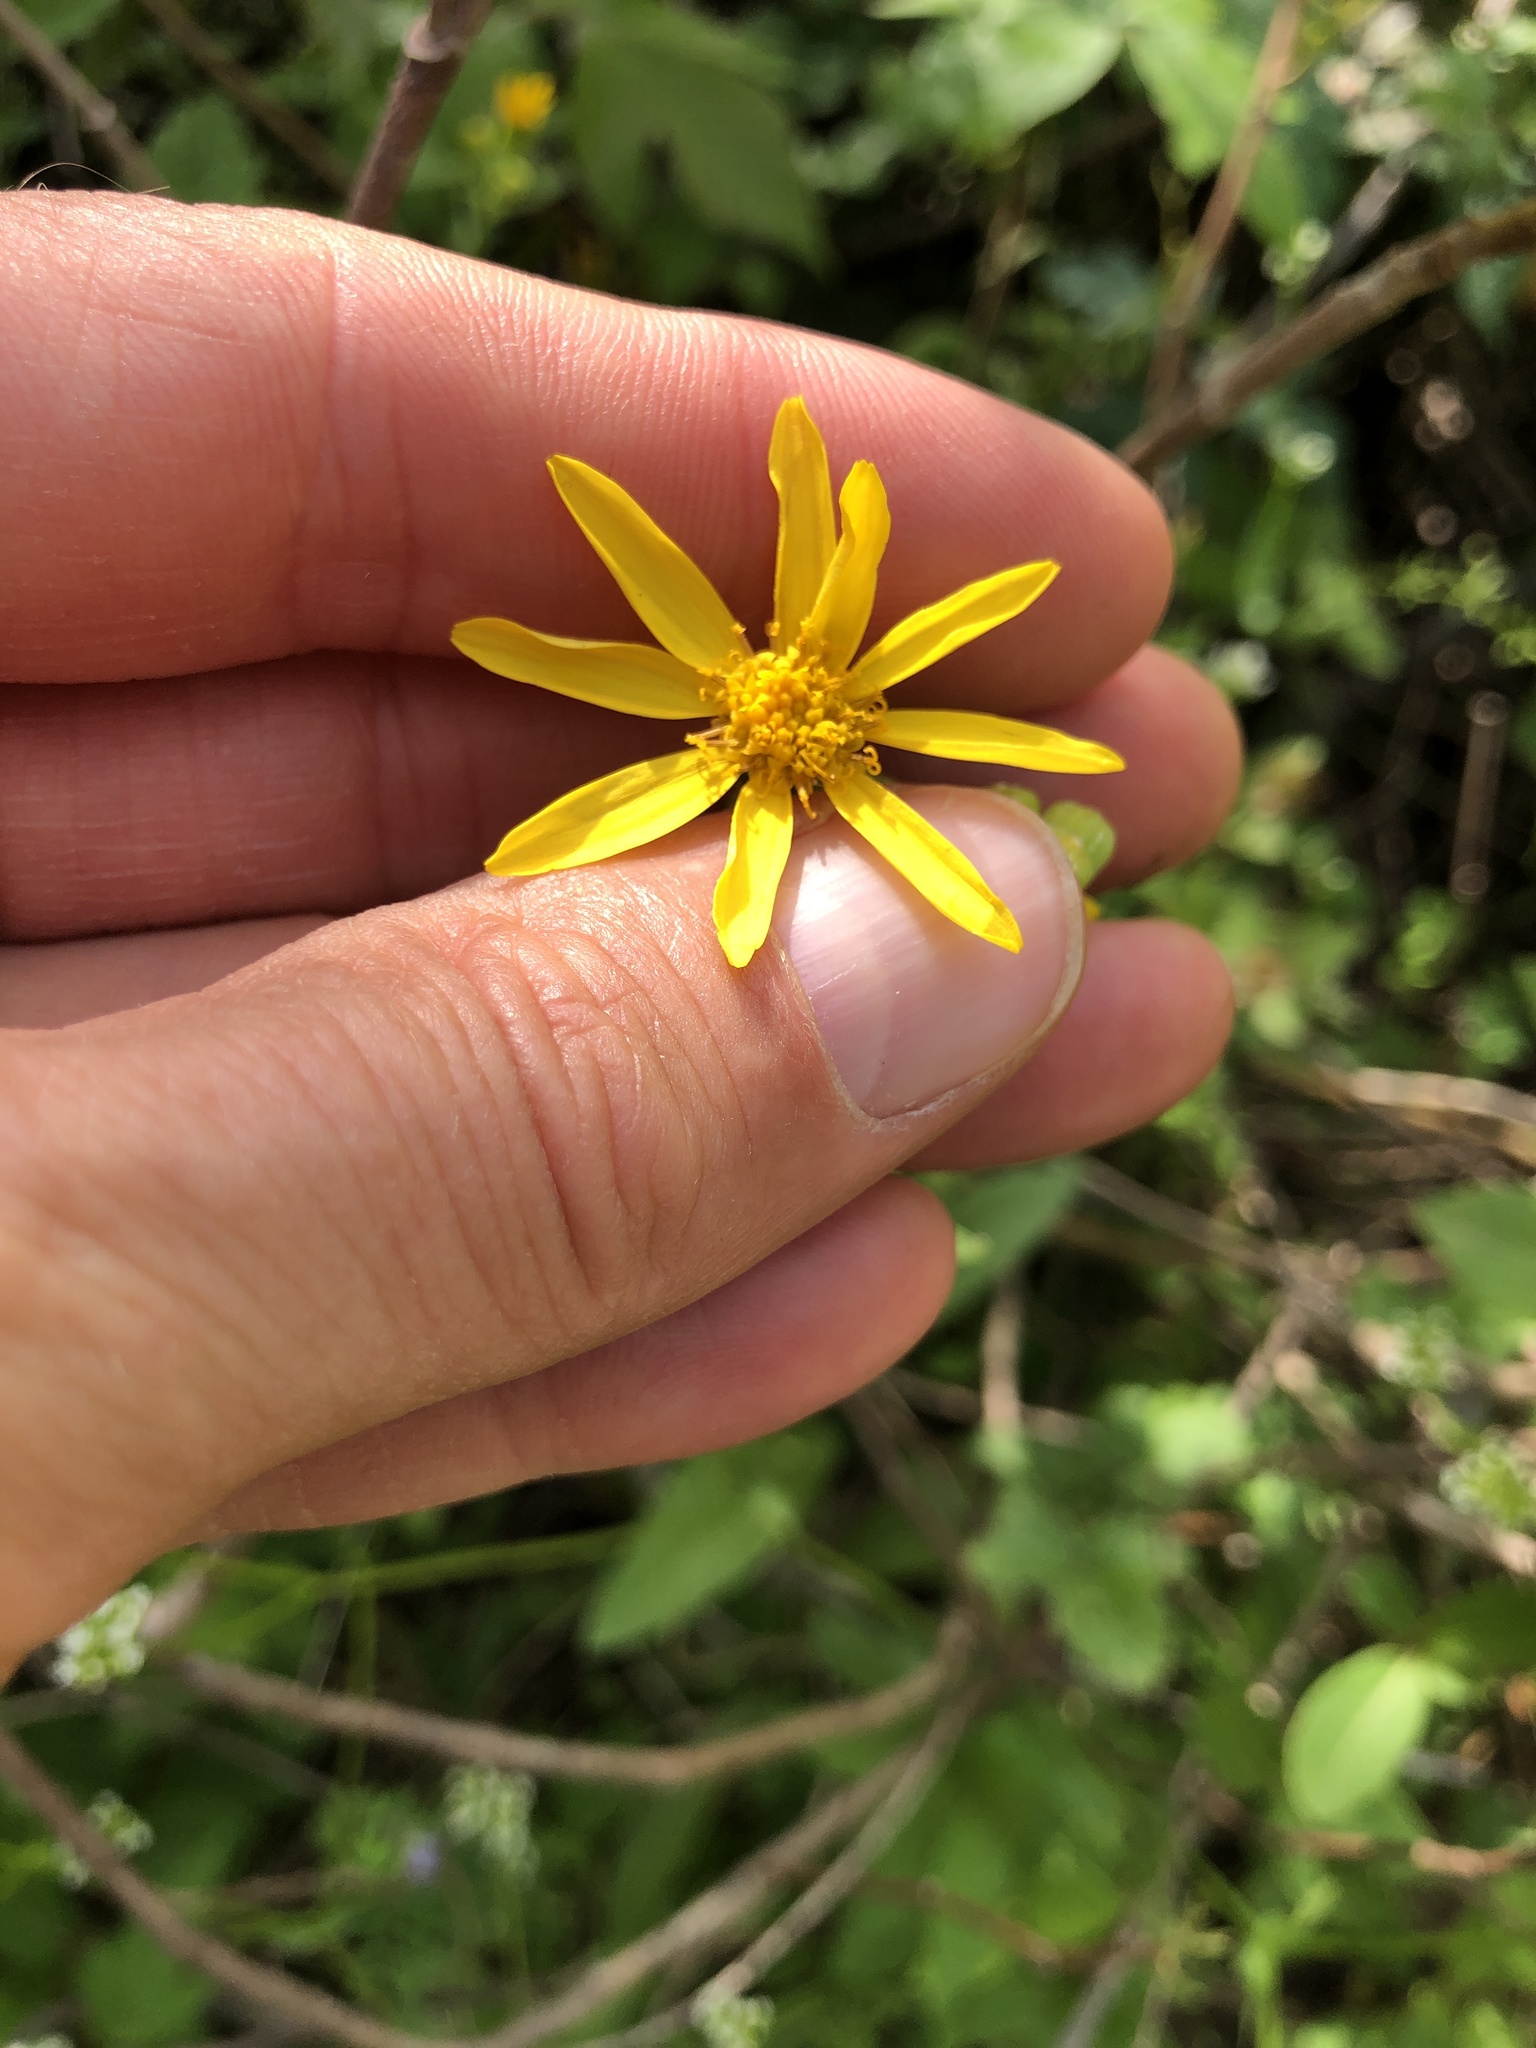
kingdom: Plantae
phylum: Tracheophyta
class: Magnoliopsida
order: Asterales
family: Asteraceae
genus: Senecio
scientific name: Senecio ampullaceus
